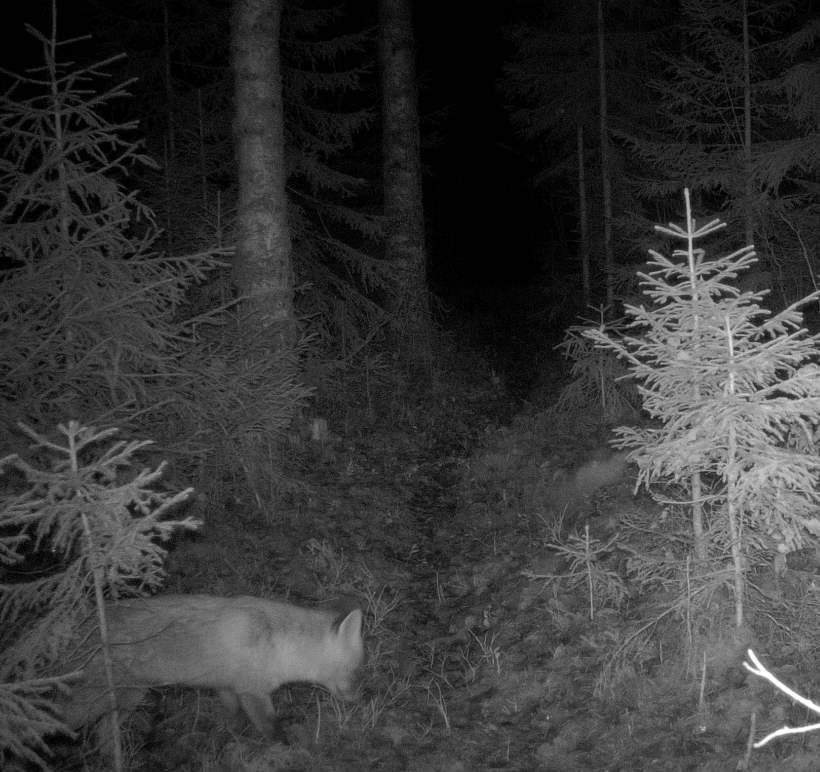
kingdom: Animalia
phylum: Chordata
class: Mammalia
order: Carnivora
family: Canidae
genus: Vulpes
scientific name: Vulpes vulpes
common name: Red fox
